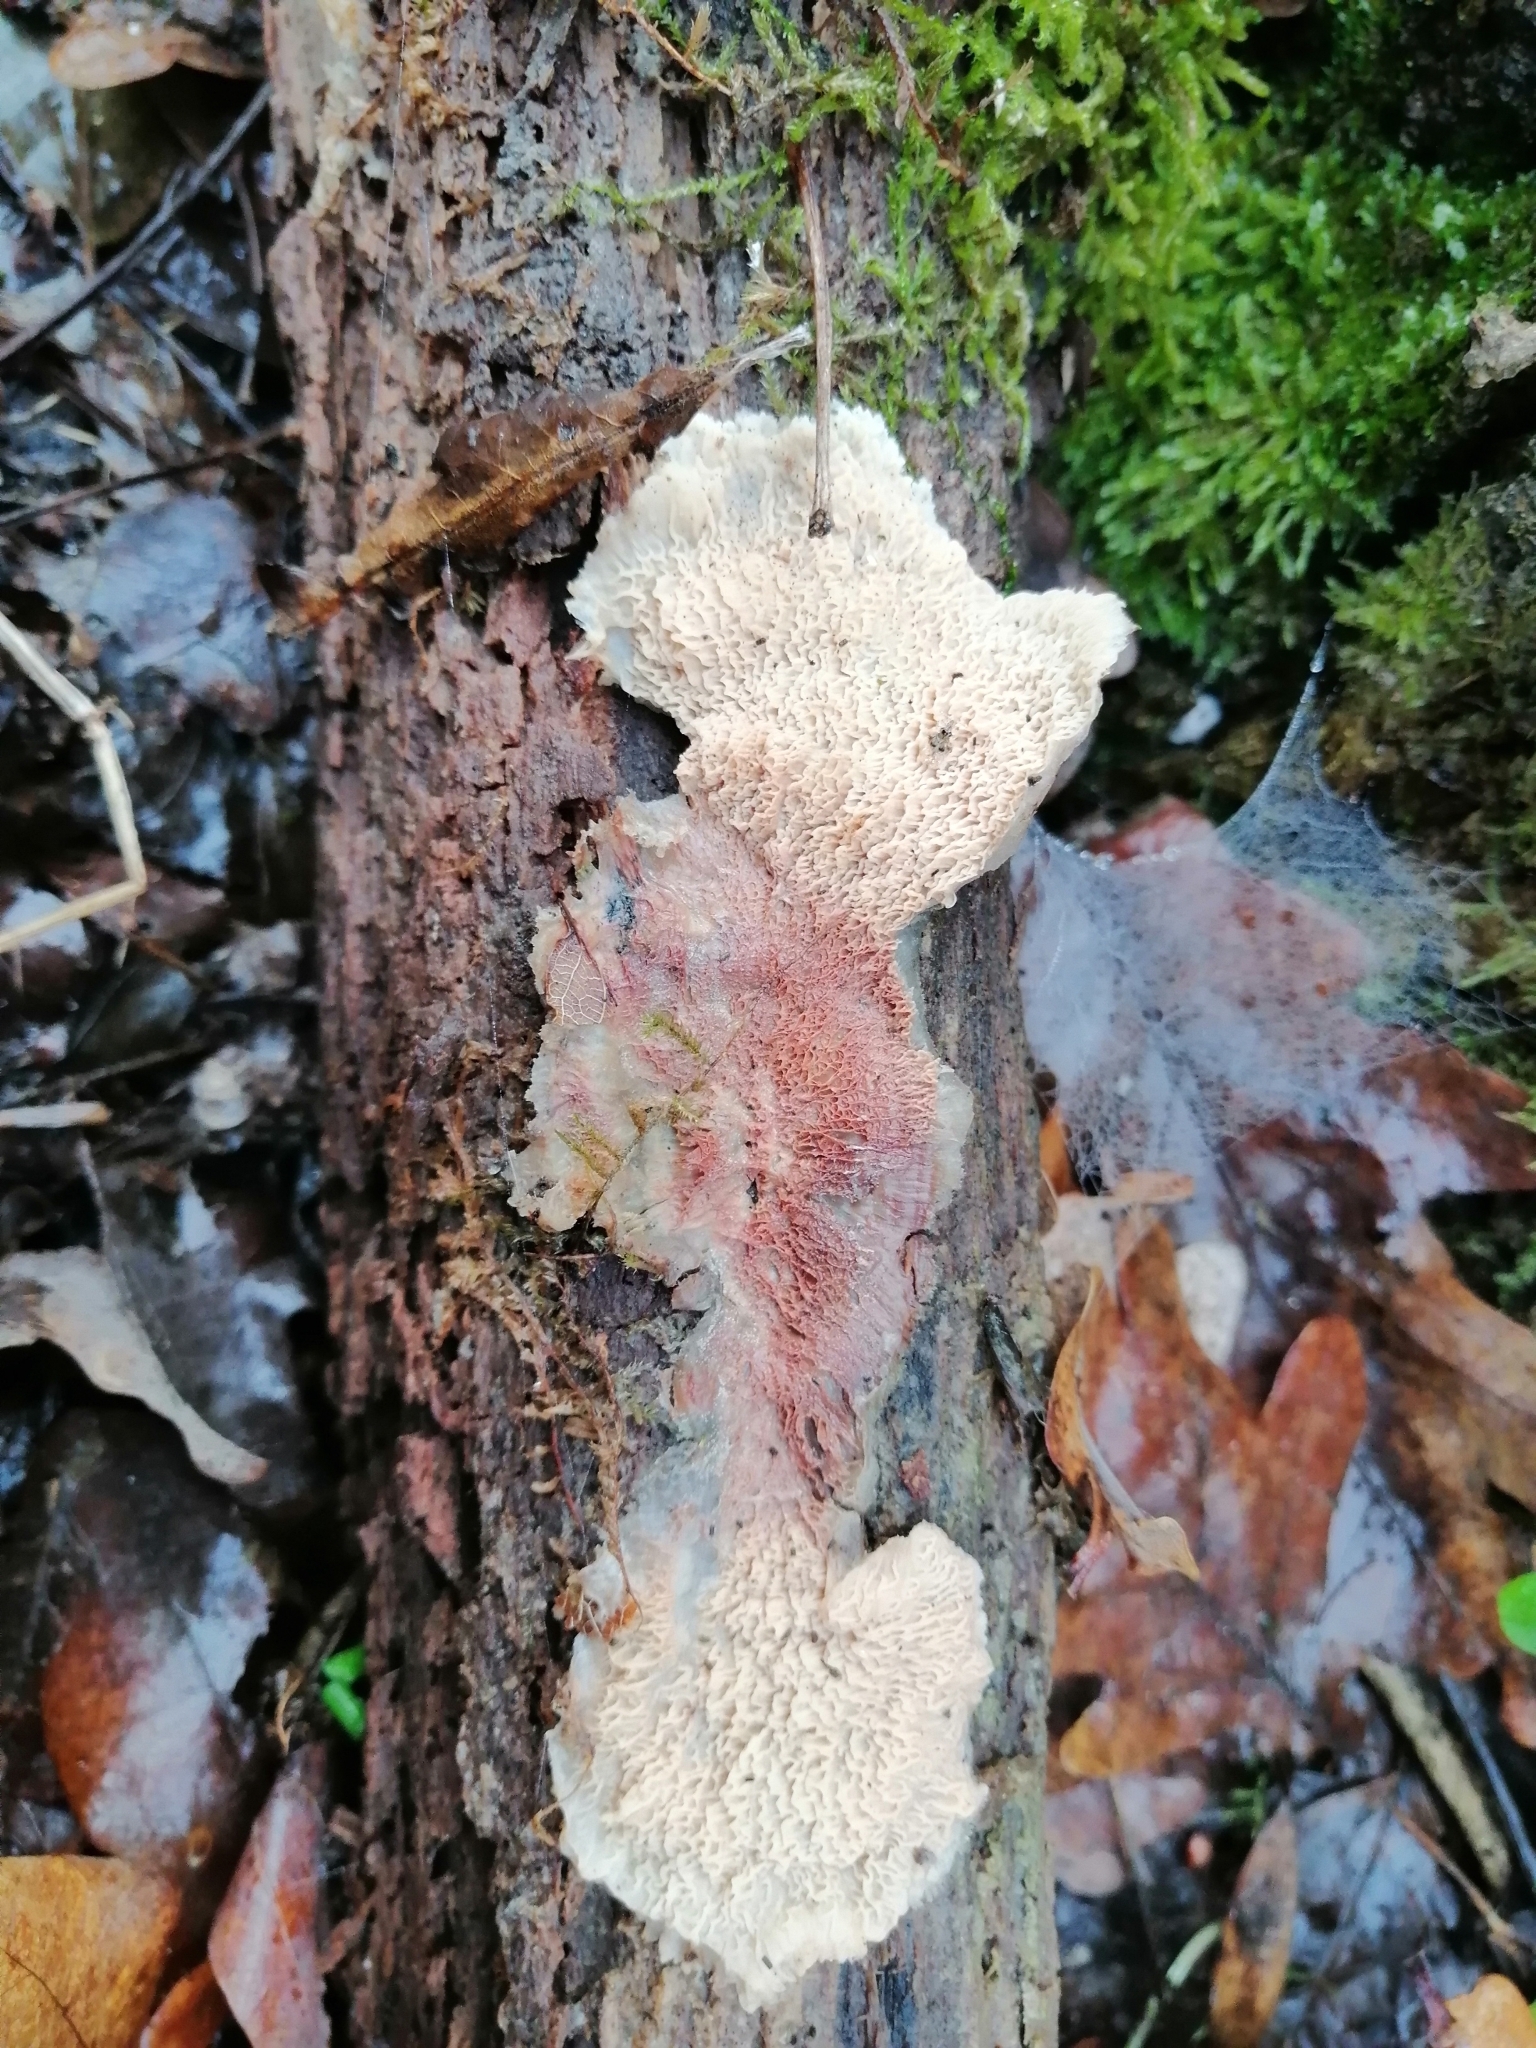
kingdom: Fungi
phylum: Basidiomycota
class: Agaricomycetes
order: Polyporales
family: Meruliaceae
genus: Phlebia
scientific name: Phlebia tremellosa
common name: Jelly rot
